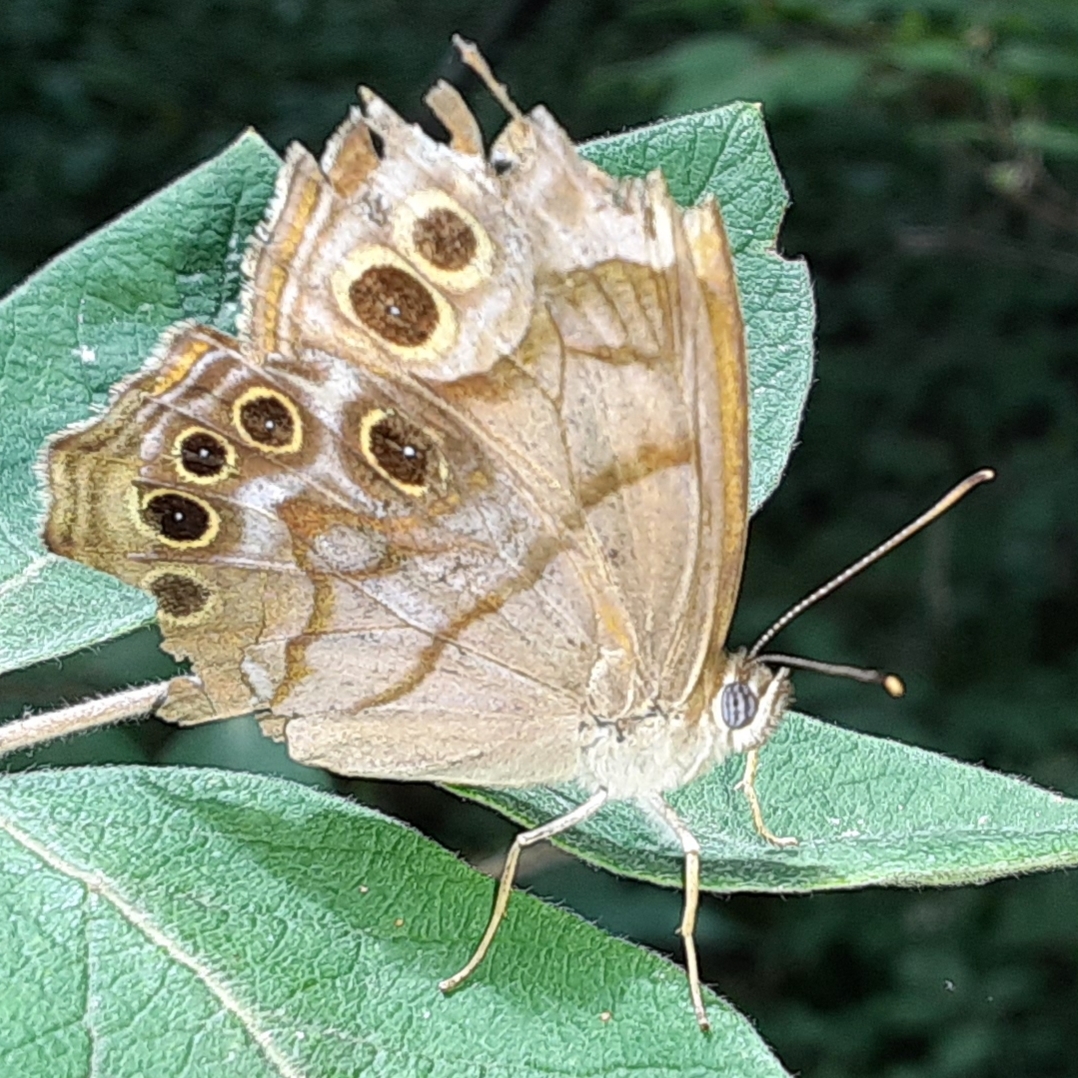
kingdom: Animalia
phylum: Arthropoda
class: Insecta
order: Lepidoptera
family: Nymphalidae
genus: Lethe
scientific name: Lethe anthedon
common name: Northern pearly-eye
